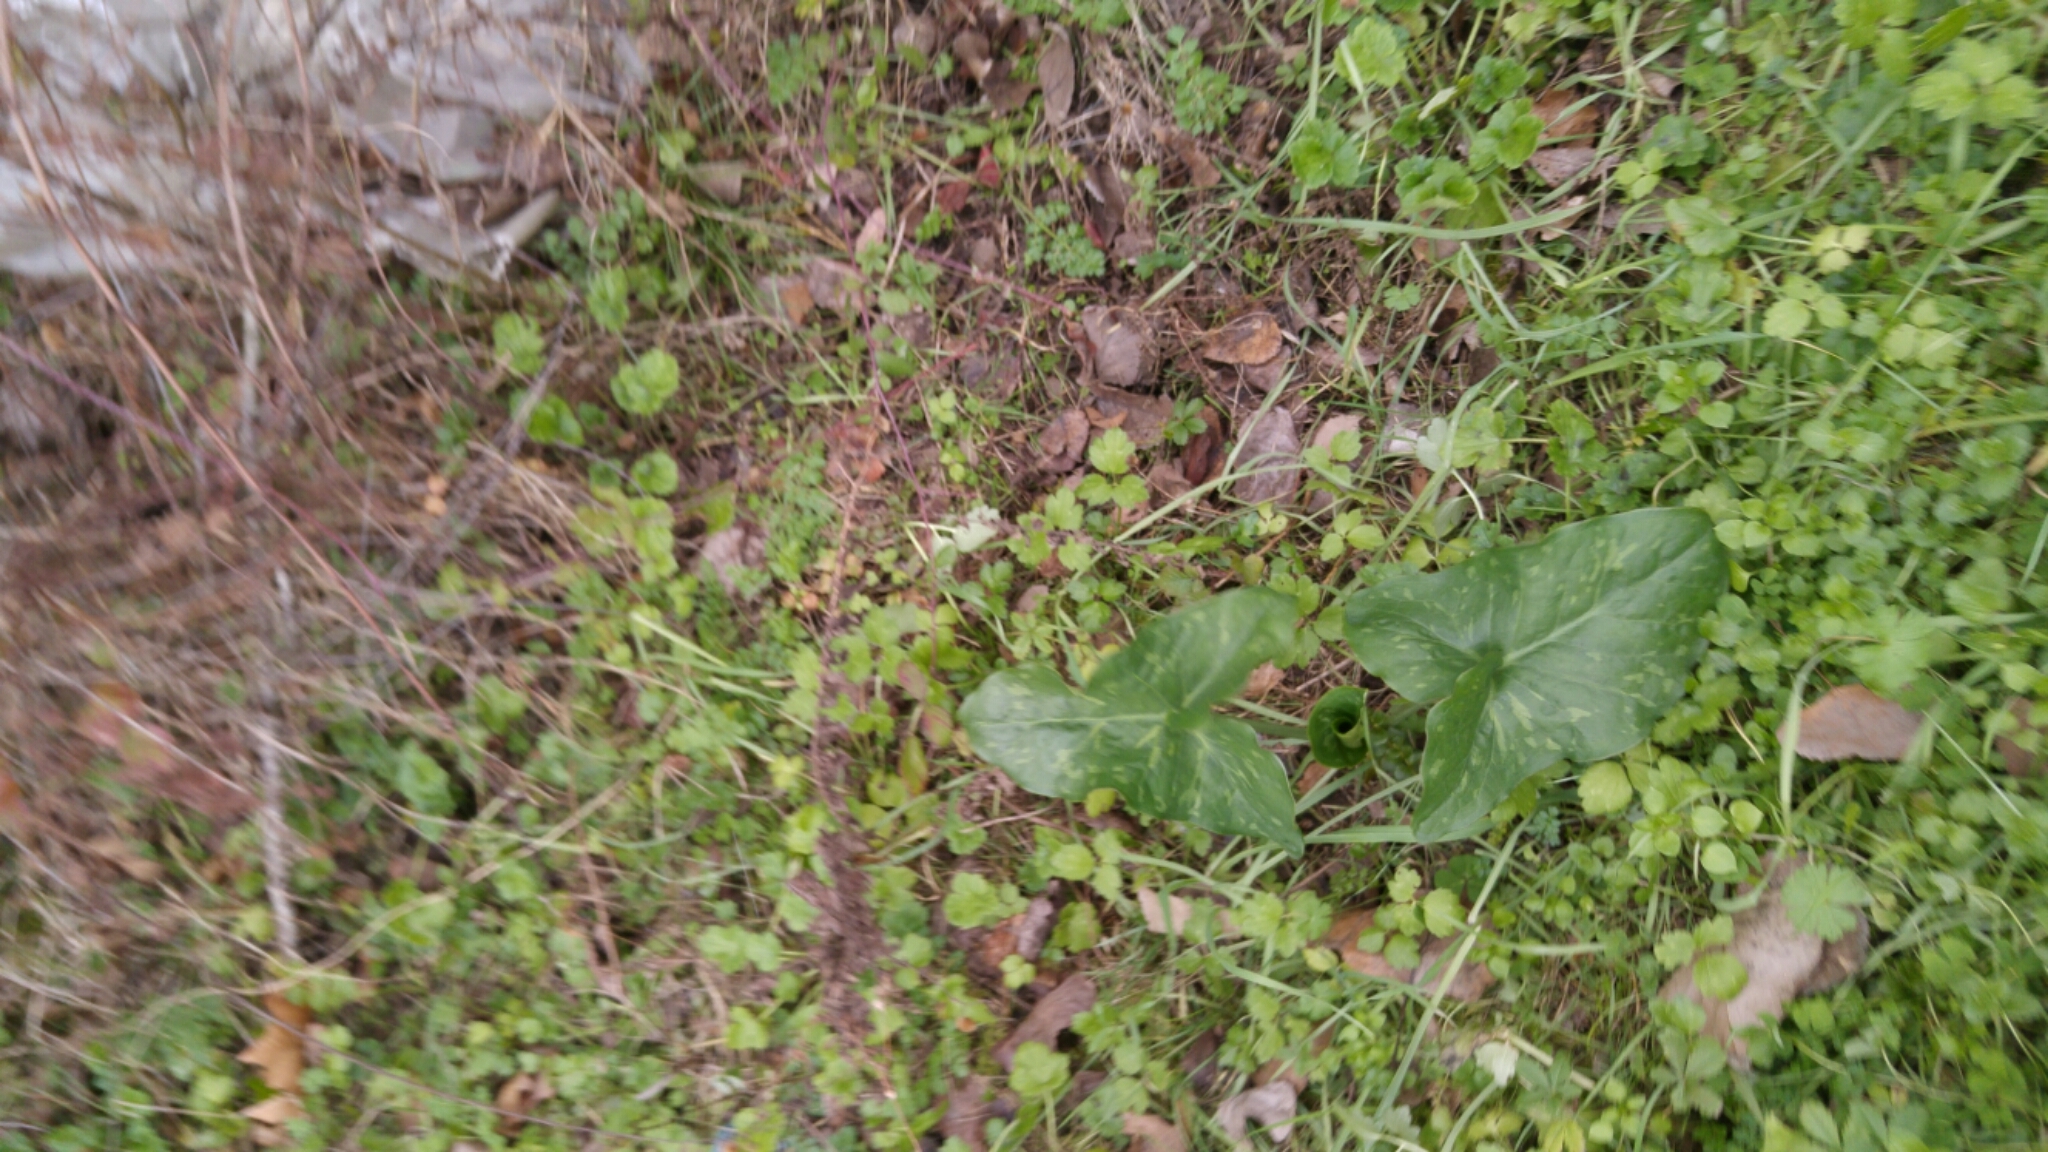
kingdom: Plantae
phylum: Tracheophyta
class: Liliopsida
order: Alismatales
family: Araceae
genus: Arum
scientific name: Arum italicum
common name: Italian lords-and-ladies
